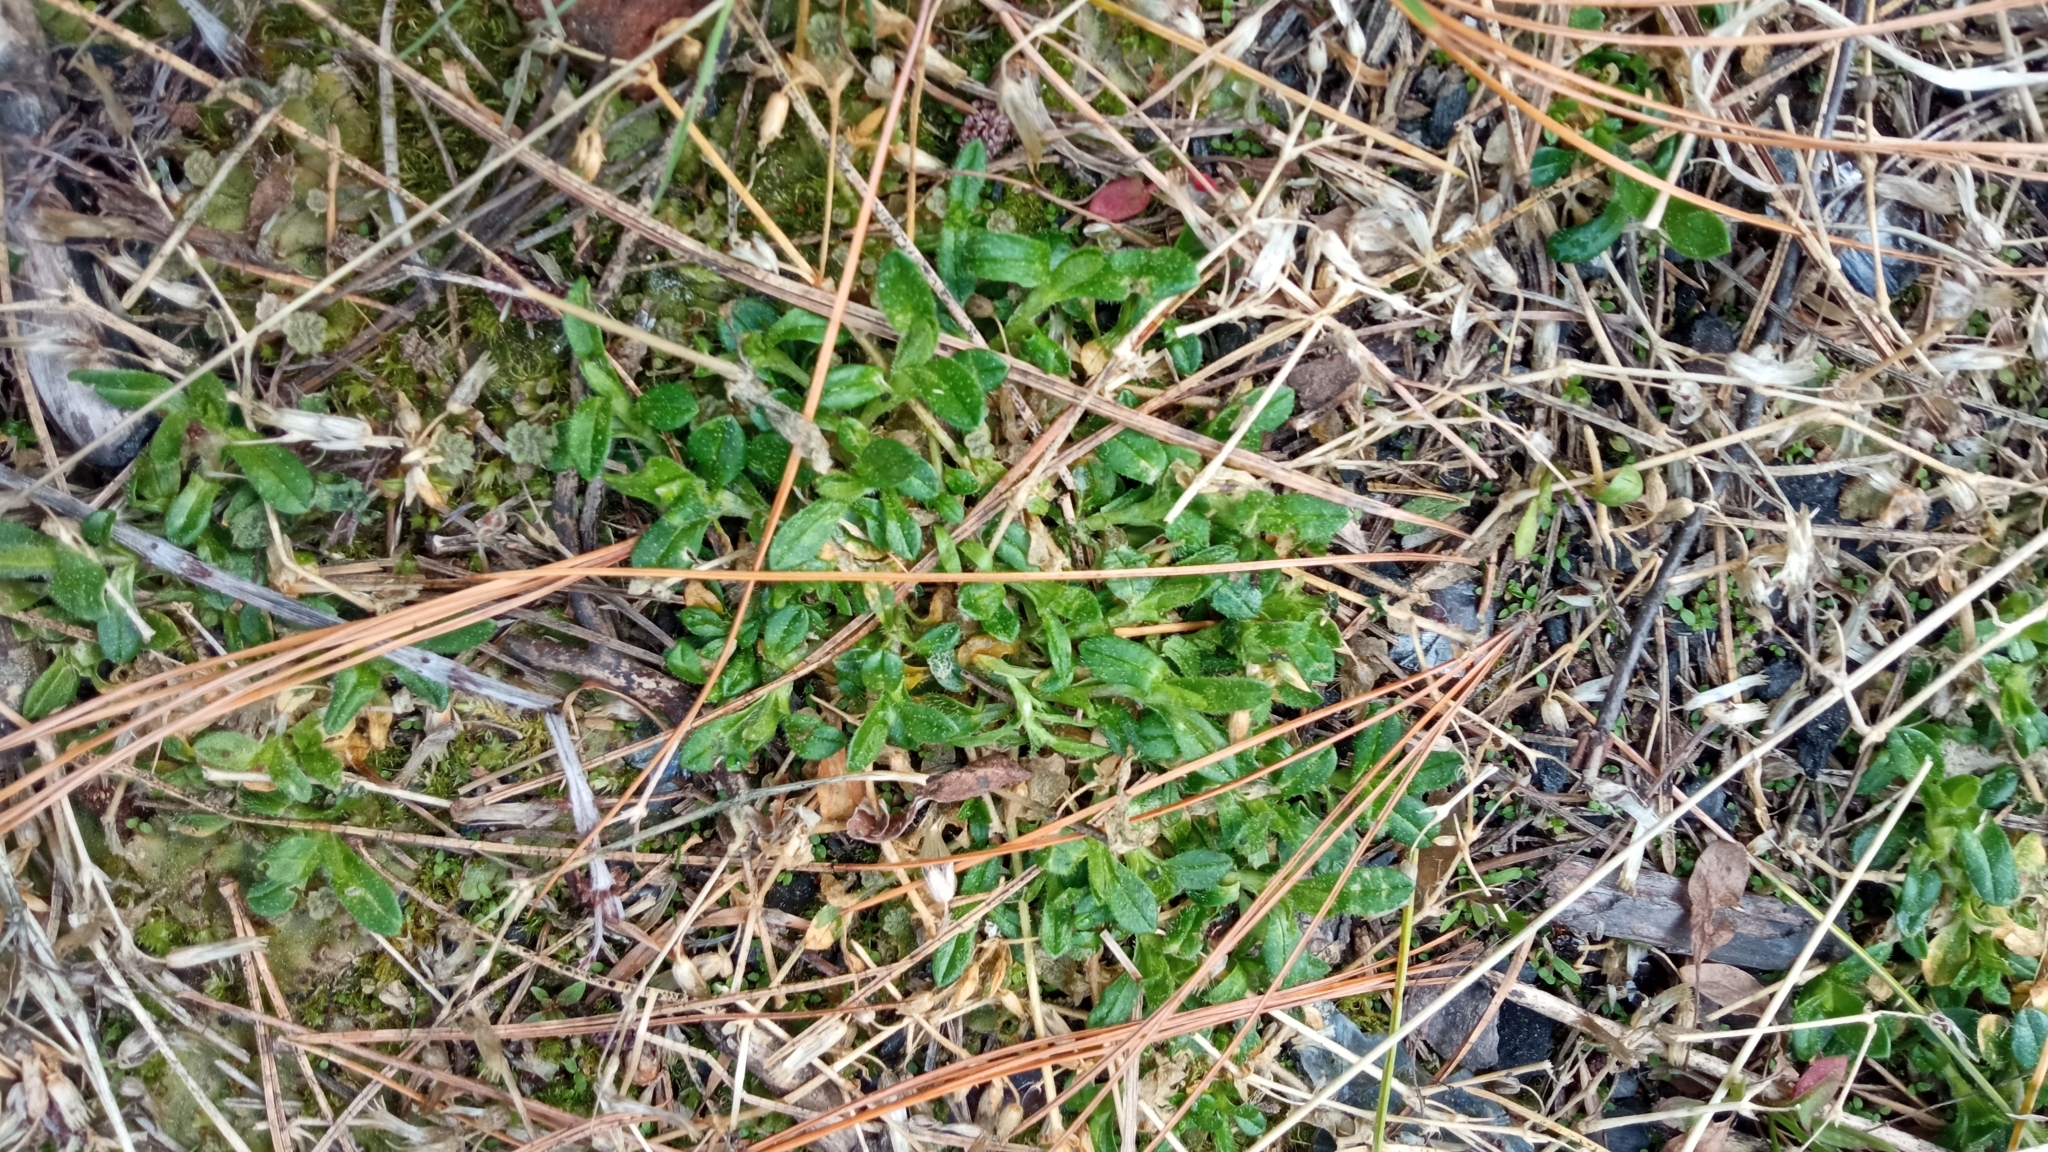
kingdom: Plantae
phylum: Tracheophyta
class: Magnoliopsida
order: Caryophyllales
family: Caryophyllaceae
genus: Cerastium
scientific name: Cerastium holosteoides
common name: Big chickweed
